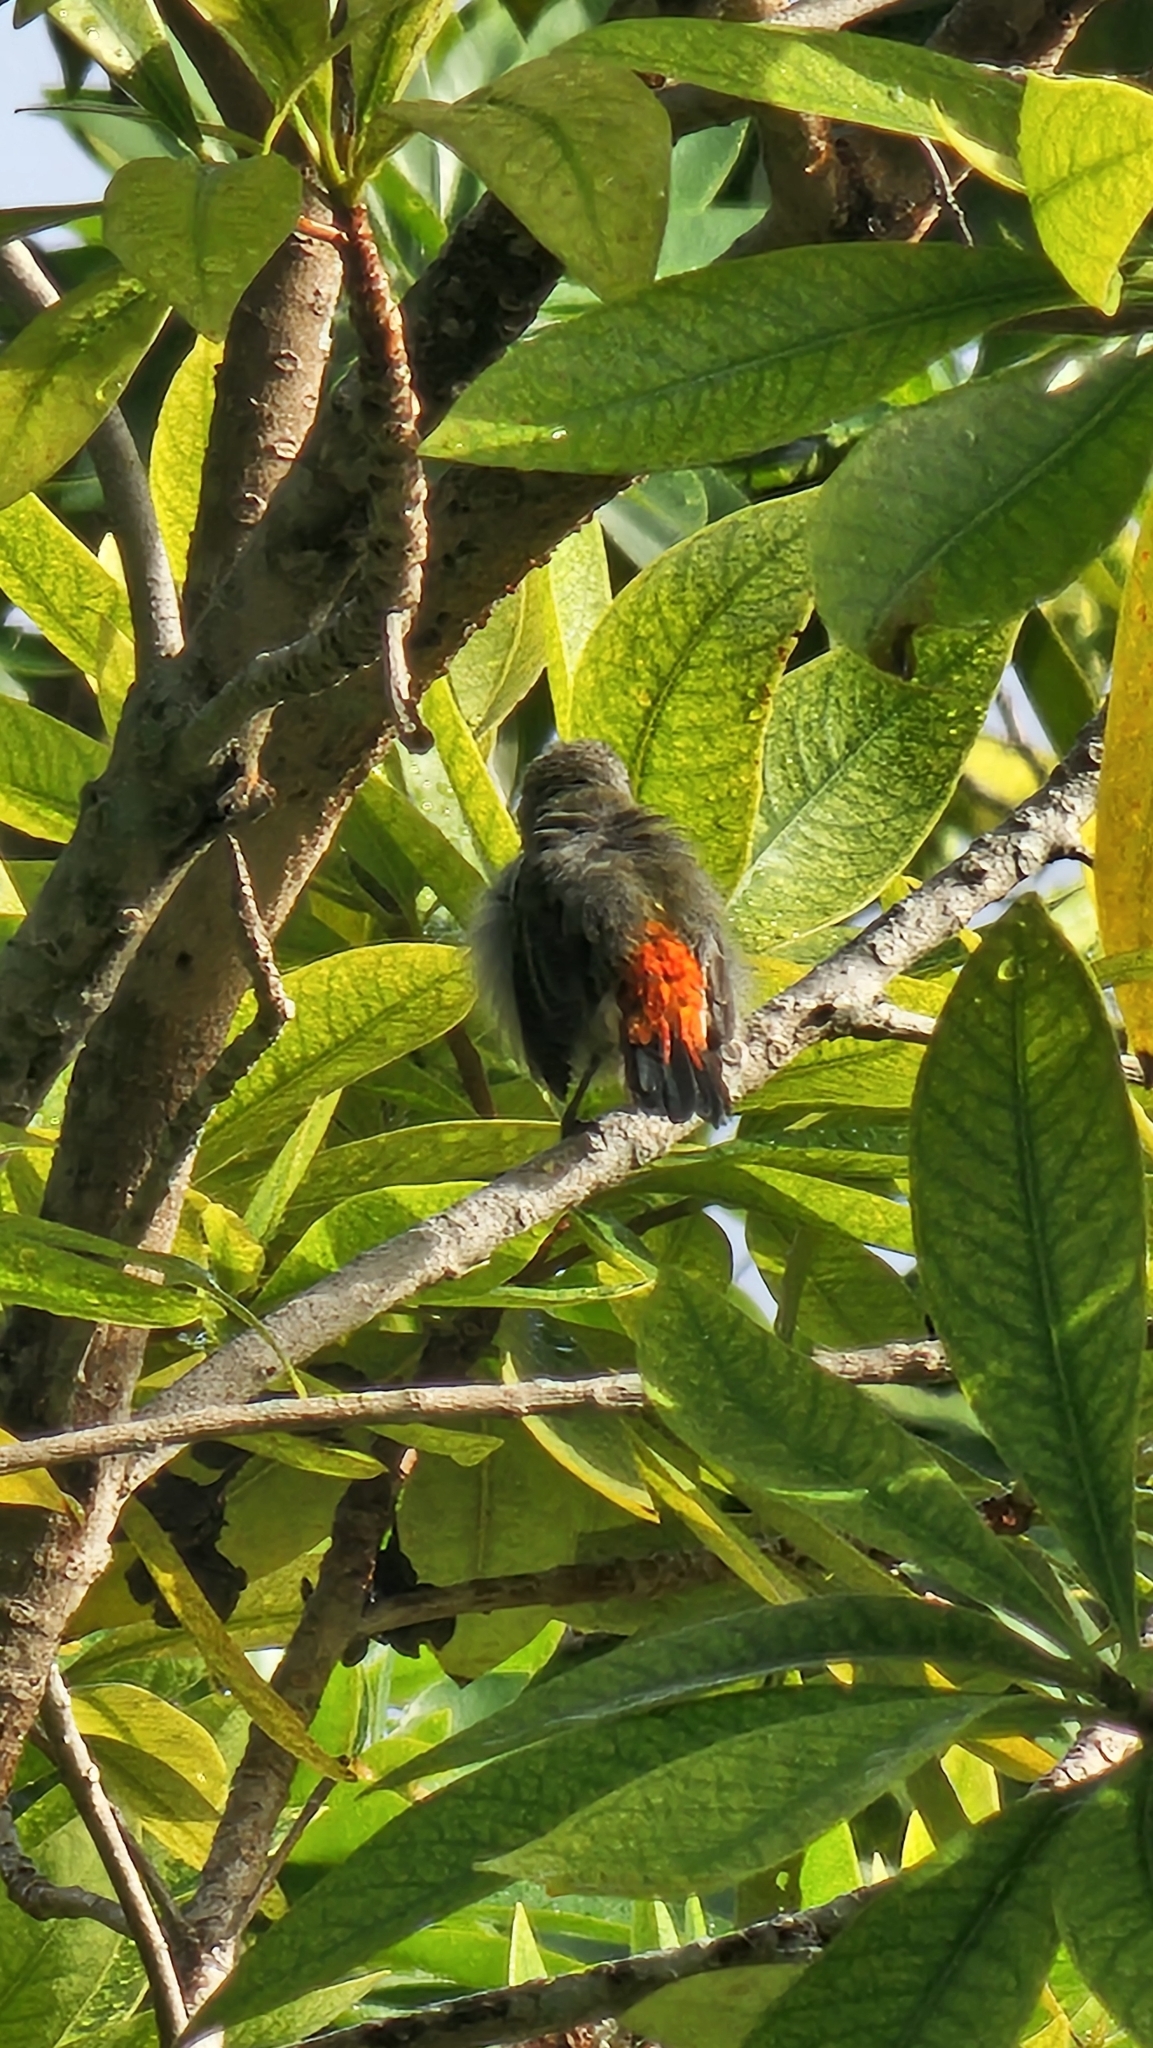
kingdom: Animalia
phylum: Chordata
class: Aves
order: Passeriformes
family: Dicaeidae
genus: Dicaeum
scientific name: Dicaeum cruentatum
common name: Scarlet-backed flowerpecker
